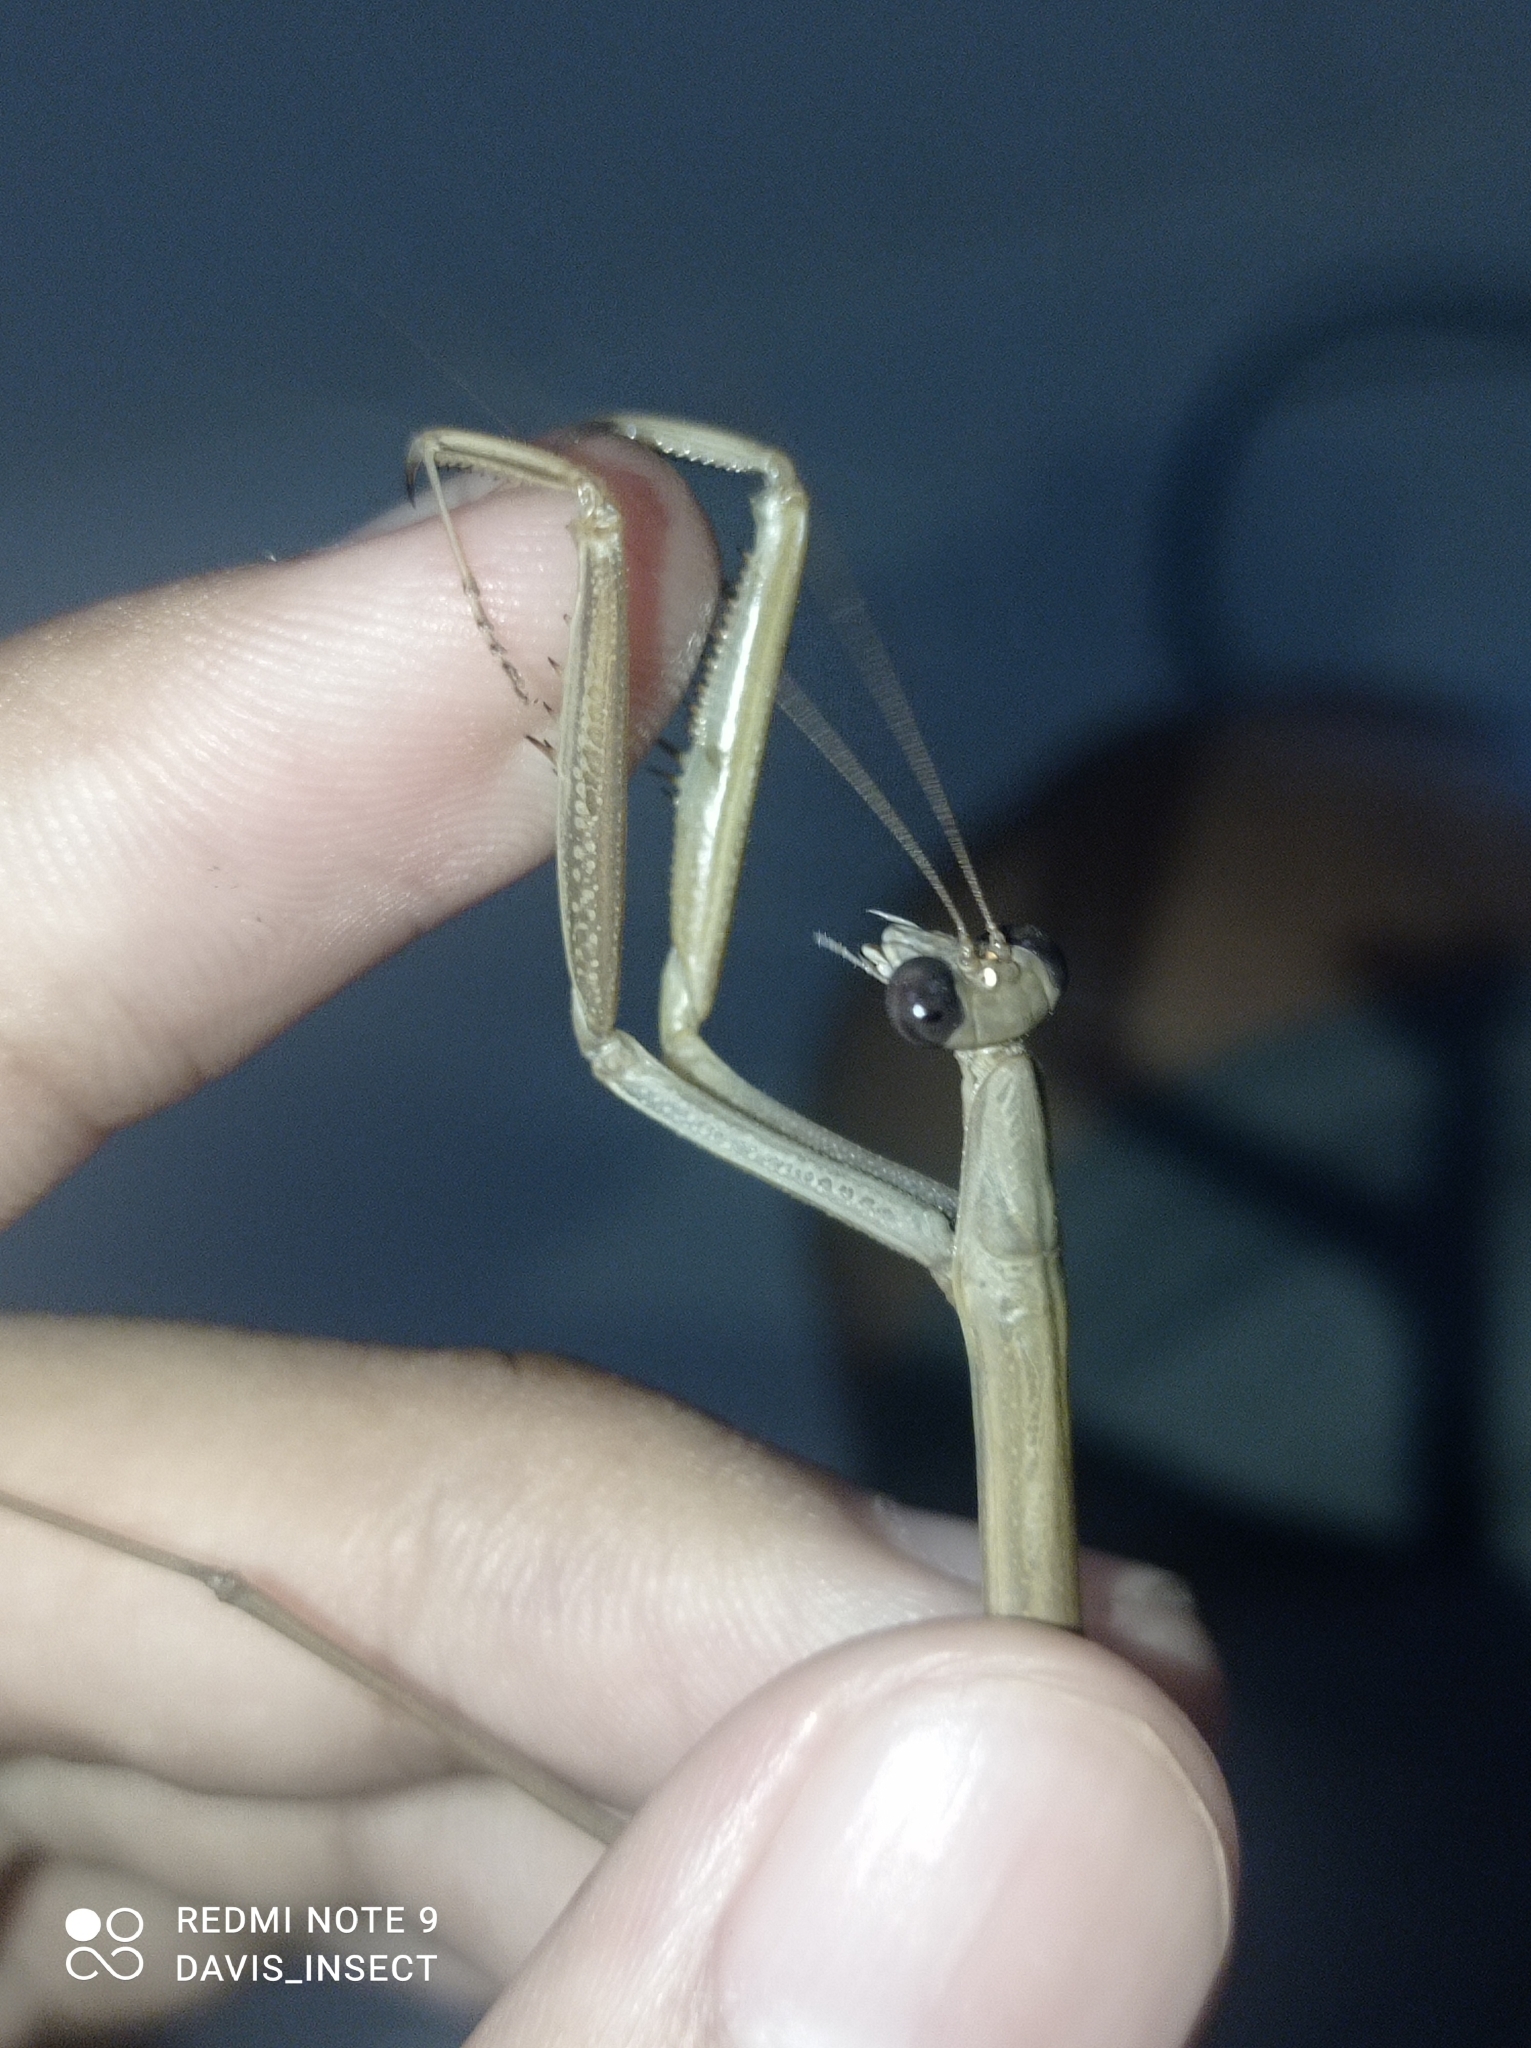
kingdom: Animalia
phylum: Arthropoda
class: Insecta
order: Mantodea
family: Mantidae
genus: Tenodera
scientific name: Tenodera
